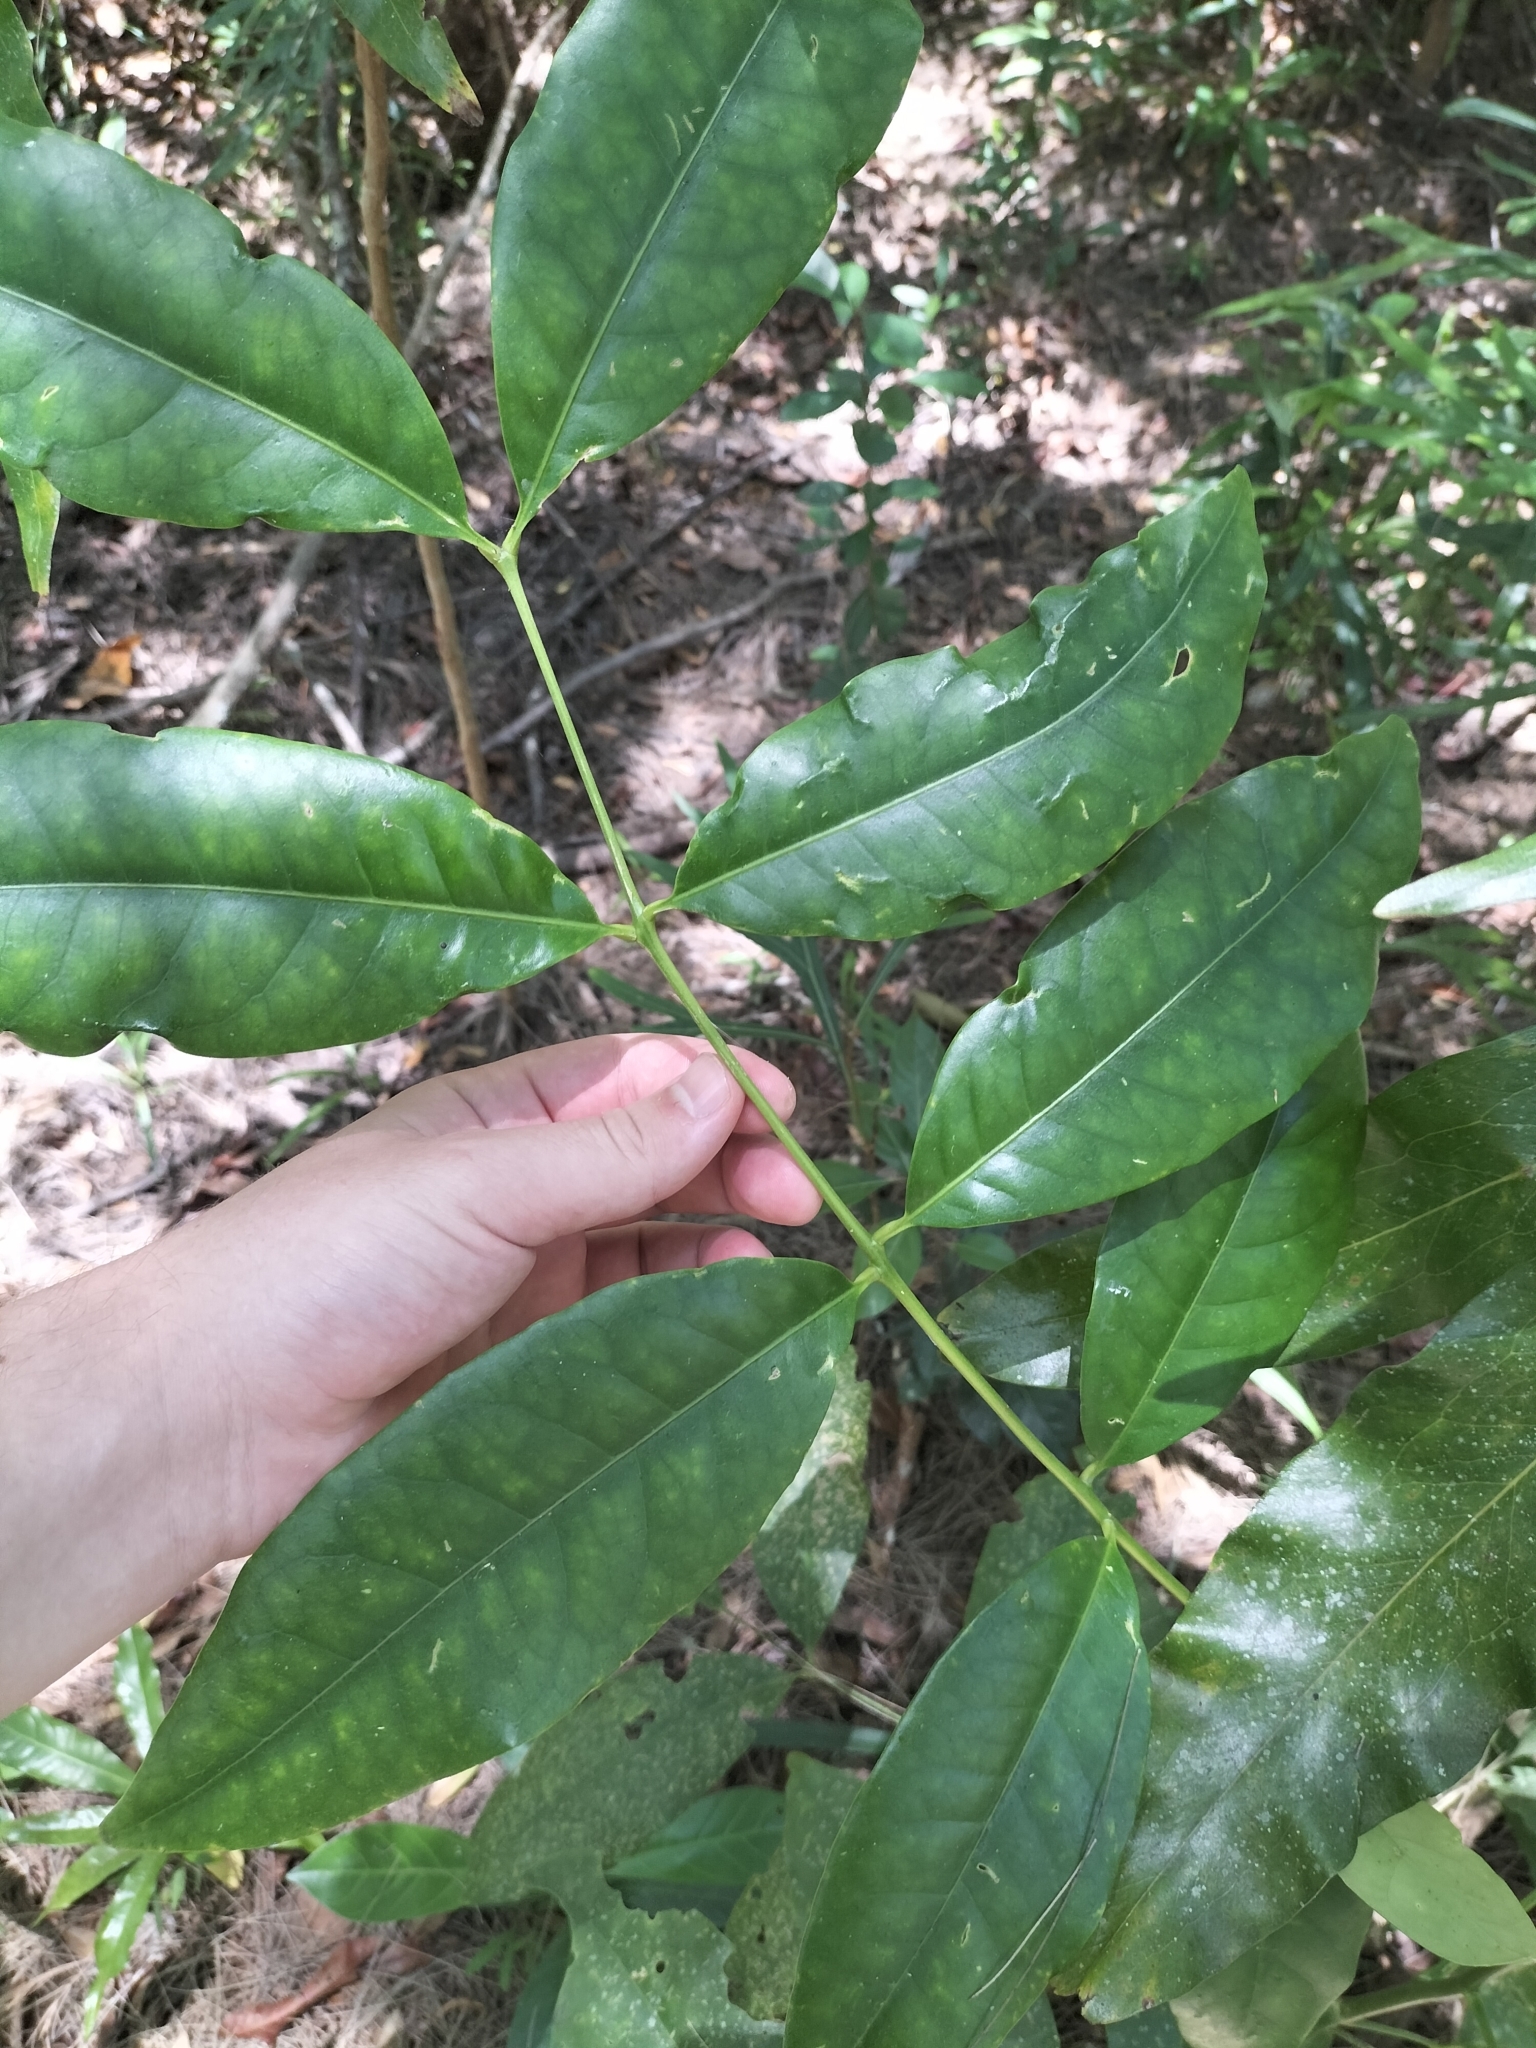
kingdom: Plantae
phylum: Tracheophyta
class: Magnoliopsida
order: Sapindales
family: Rutaceae
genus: Flindersia
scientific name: Flindersia brayleyana
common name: Queensland maple
